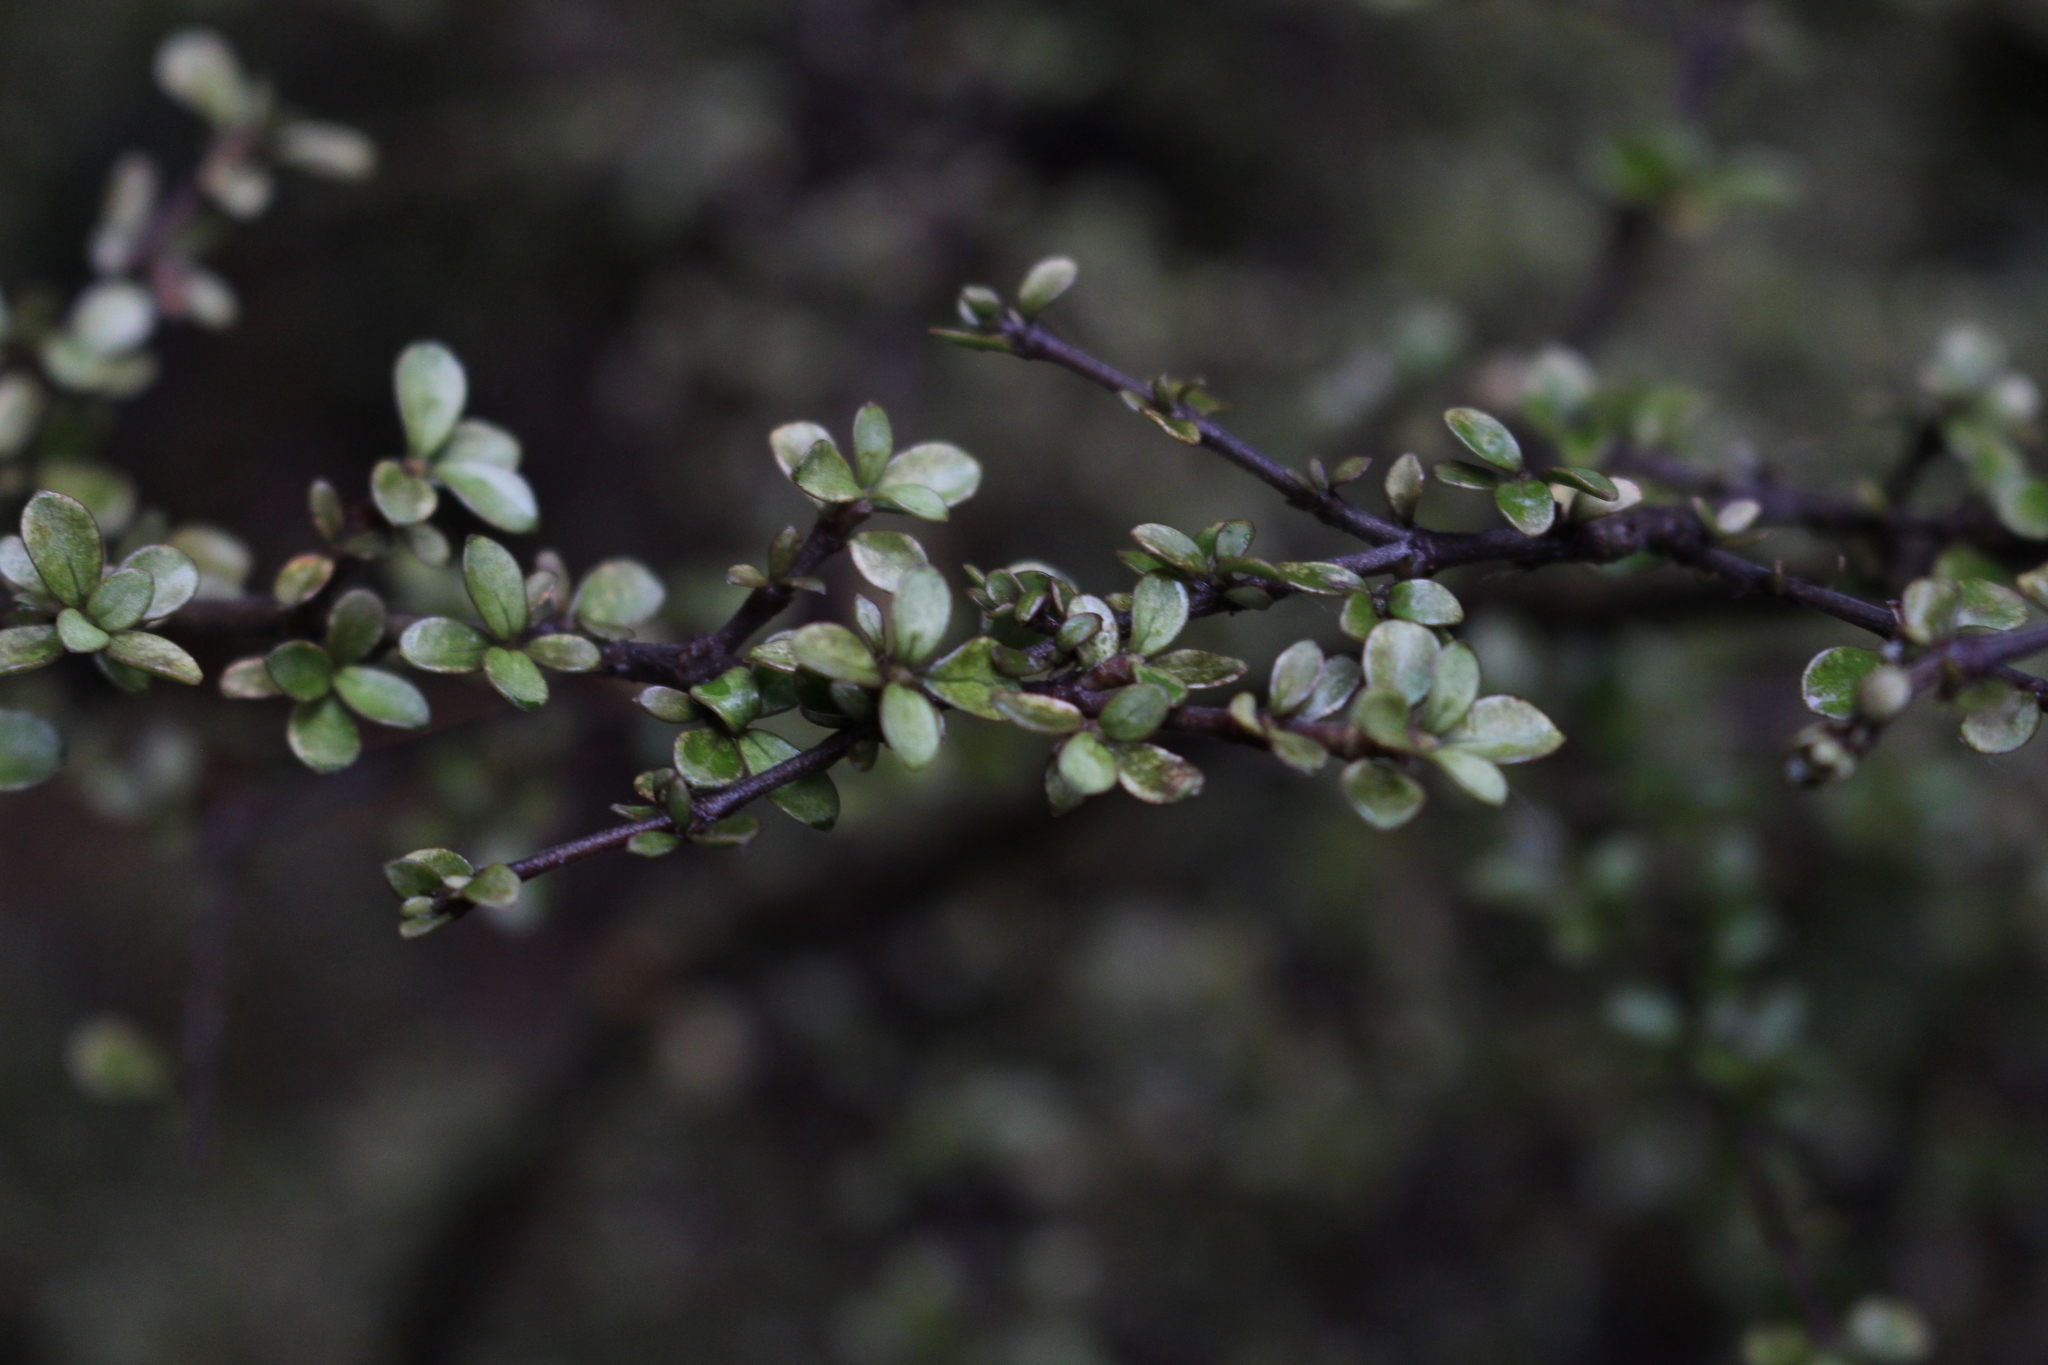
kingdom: Plantae
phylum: Tracheophyta
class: Magnoliopsida
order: Gentianales
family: Rubiaceae
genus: Coprosma
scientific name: Coprosma dumosa
